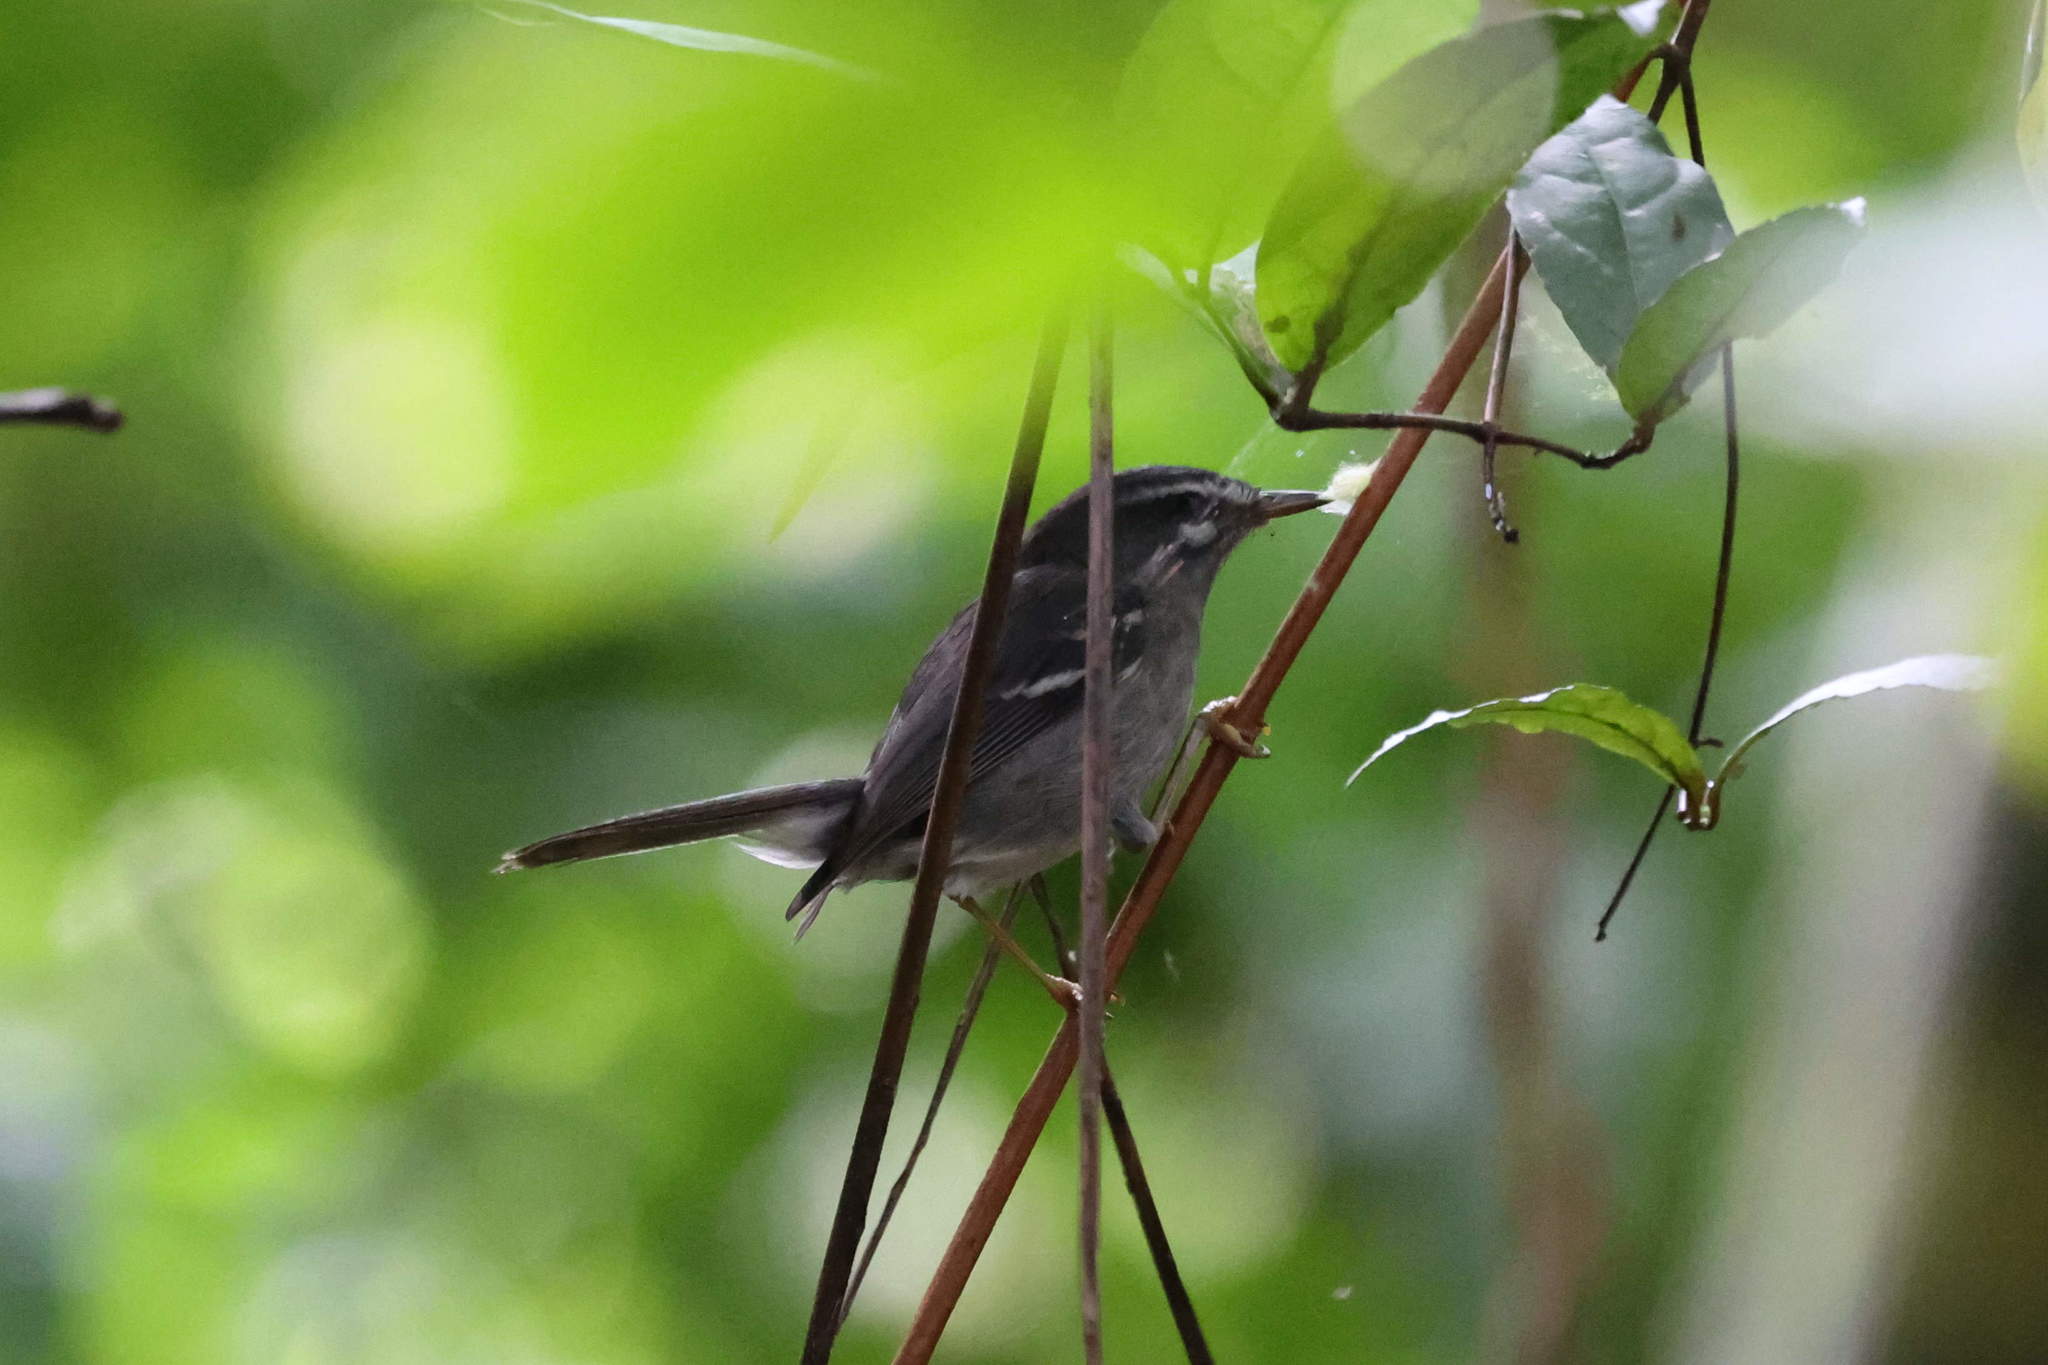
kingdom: Animalia
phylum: Chordata
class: Aves
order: Passeriformes
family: Parulidae
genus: Setophaga
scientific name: Setophaga plumbea
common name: Plumbeous warbler
